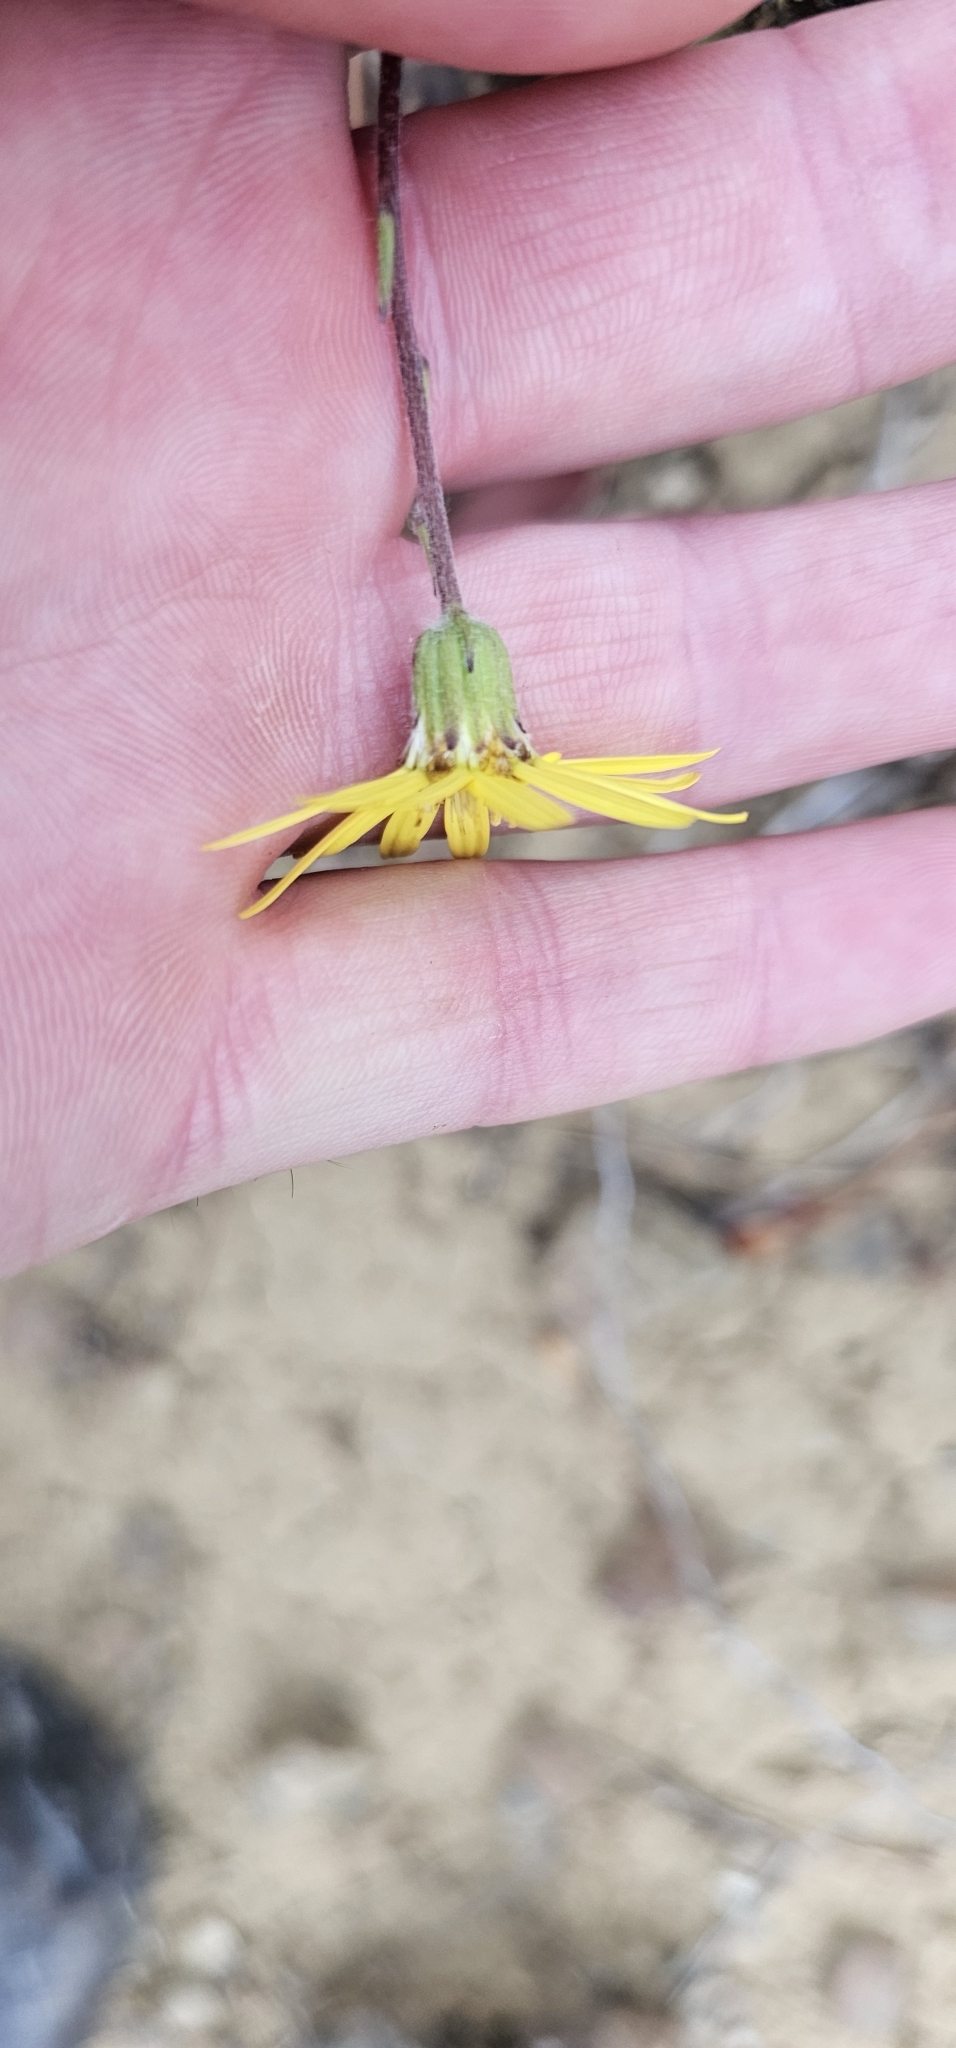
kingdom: Plantae
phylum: Tracheophyta
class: Magnoliopsida
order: Asterales
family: Asteraceae
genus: Brachyglottis
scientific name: Brachyglottis lagopus
